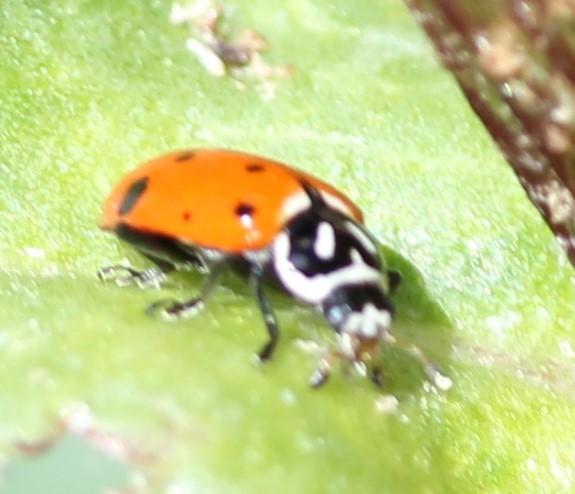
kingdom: Animalia
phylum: Arthropoda
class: Insecta
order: Coleoptera
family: Coccinellidae
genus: Hippodamia
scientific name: Hippodamia convergens
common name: Convergent lady beetle
